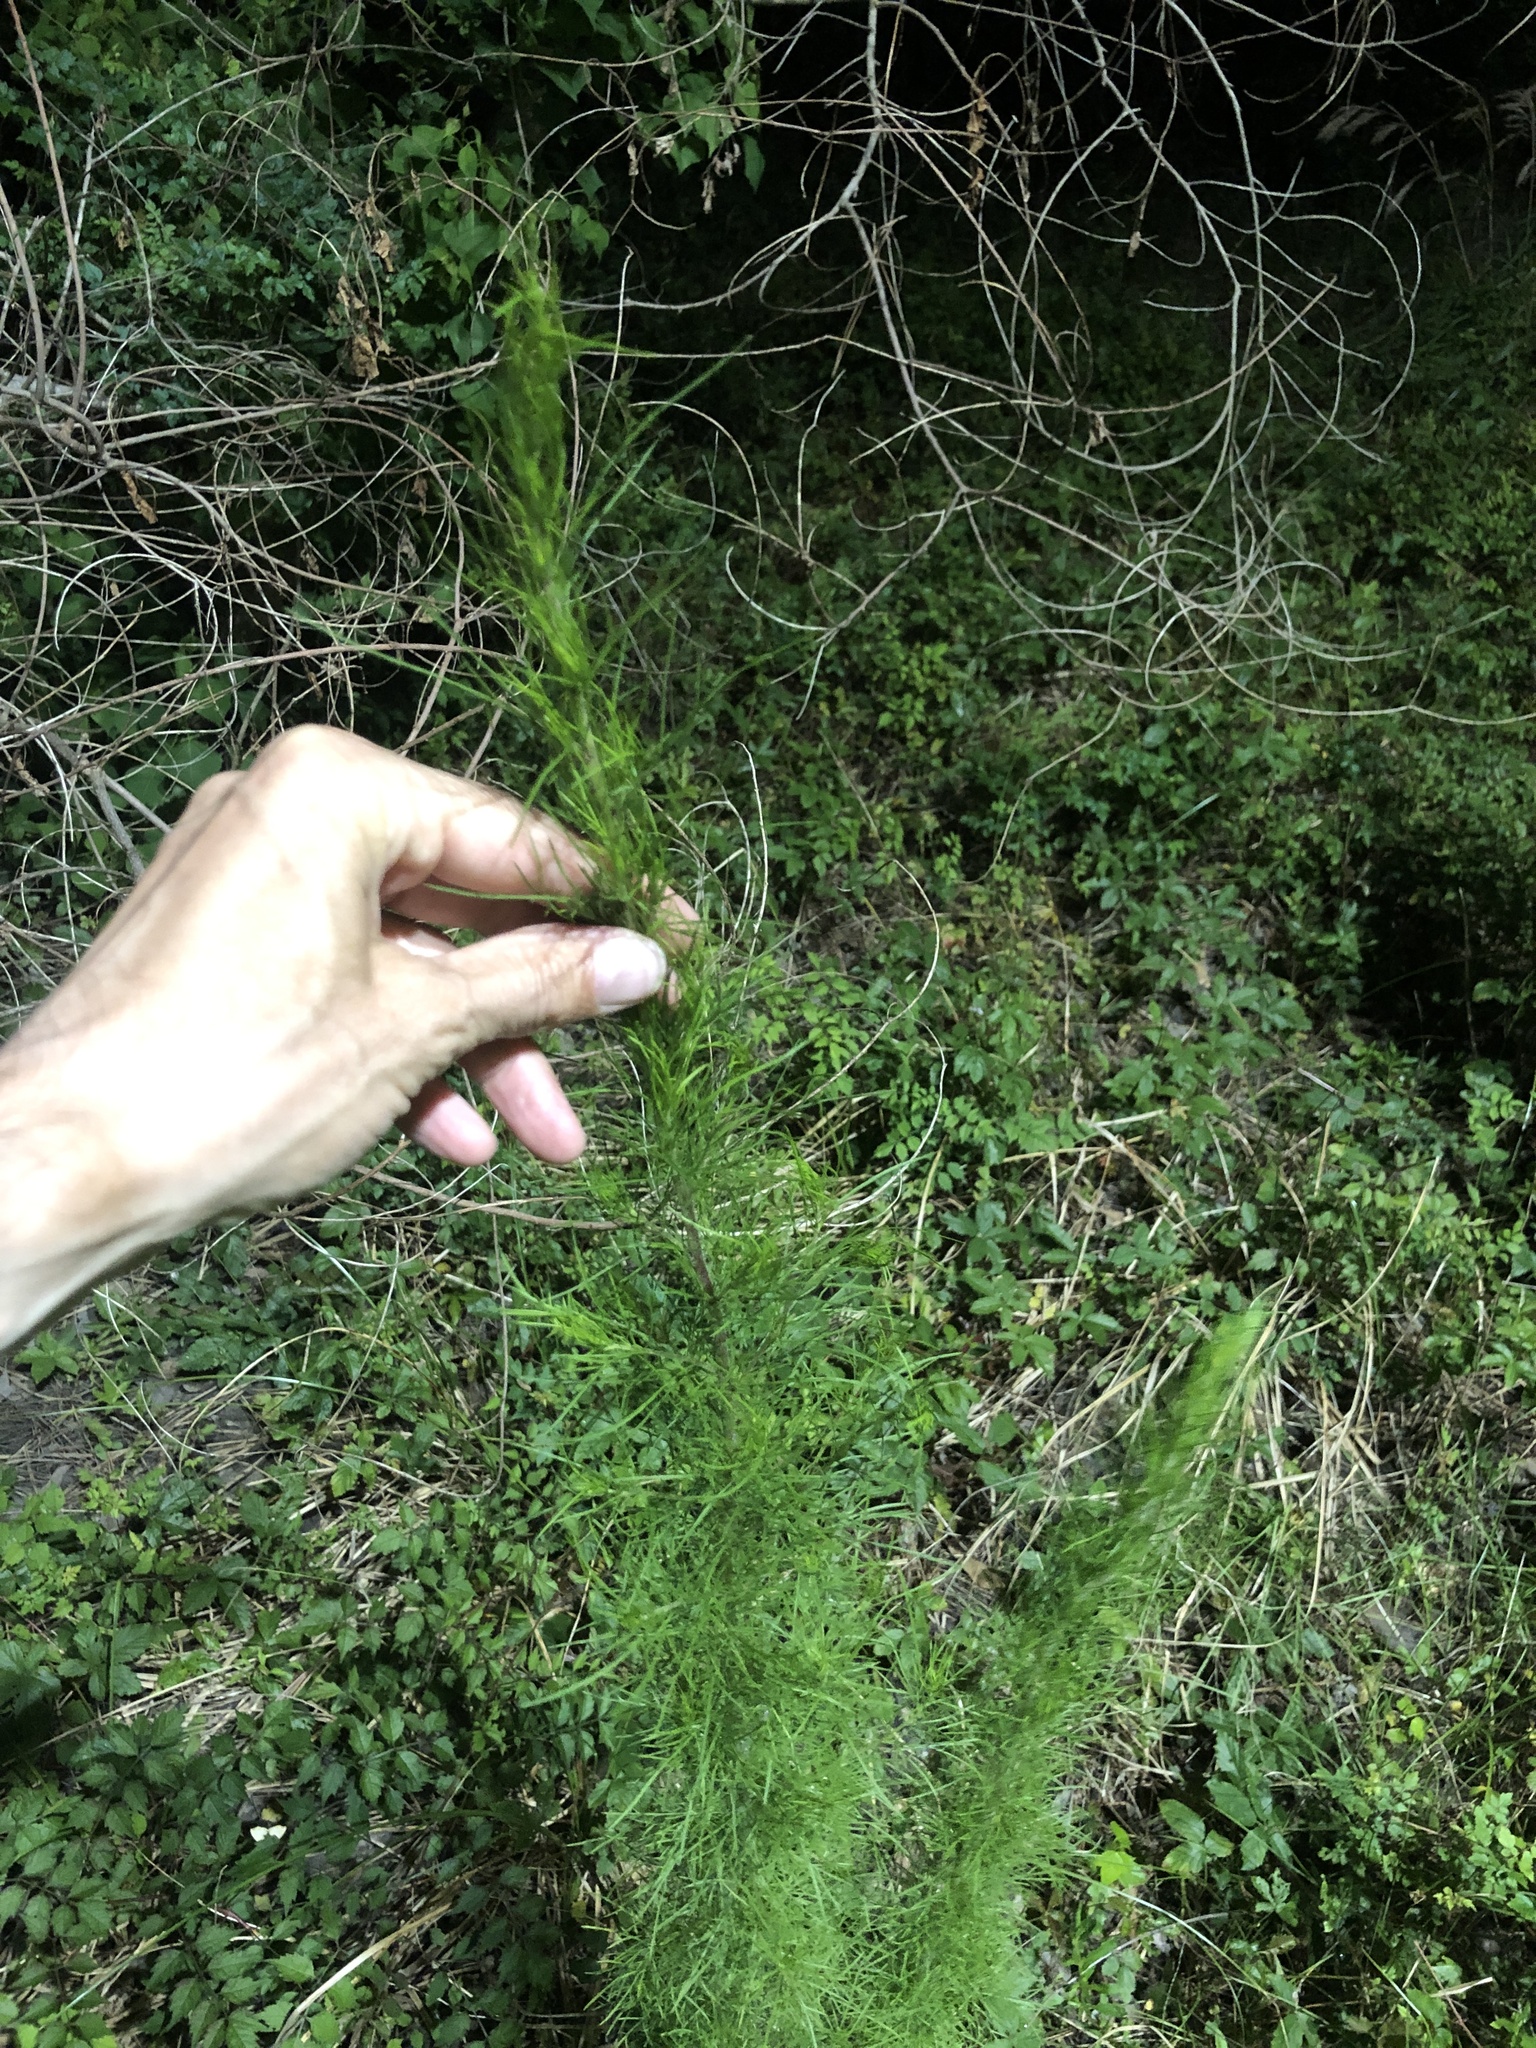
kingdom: Plantae
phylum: Tracheophyta
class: Magnoliopsida
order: Asterales
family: Asteraceae
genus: Eupatorium
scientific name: Eupatorium capillifolium
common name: Dog-fennel
